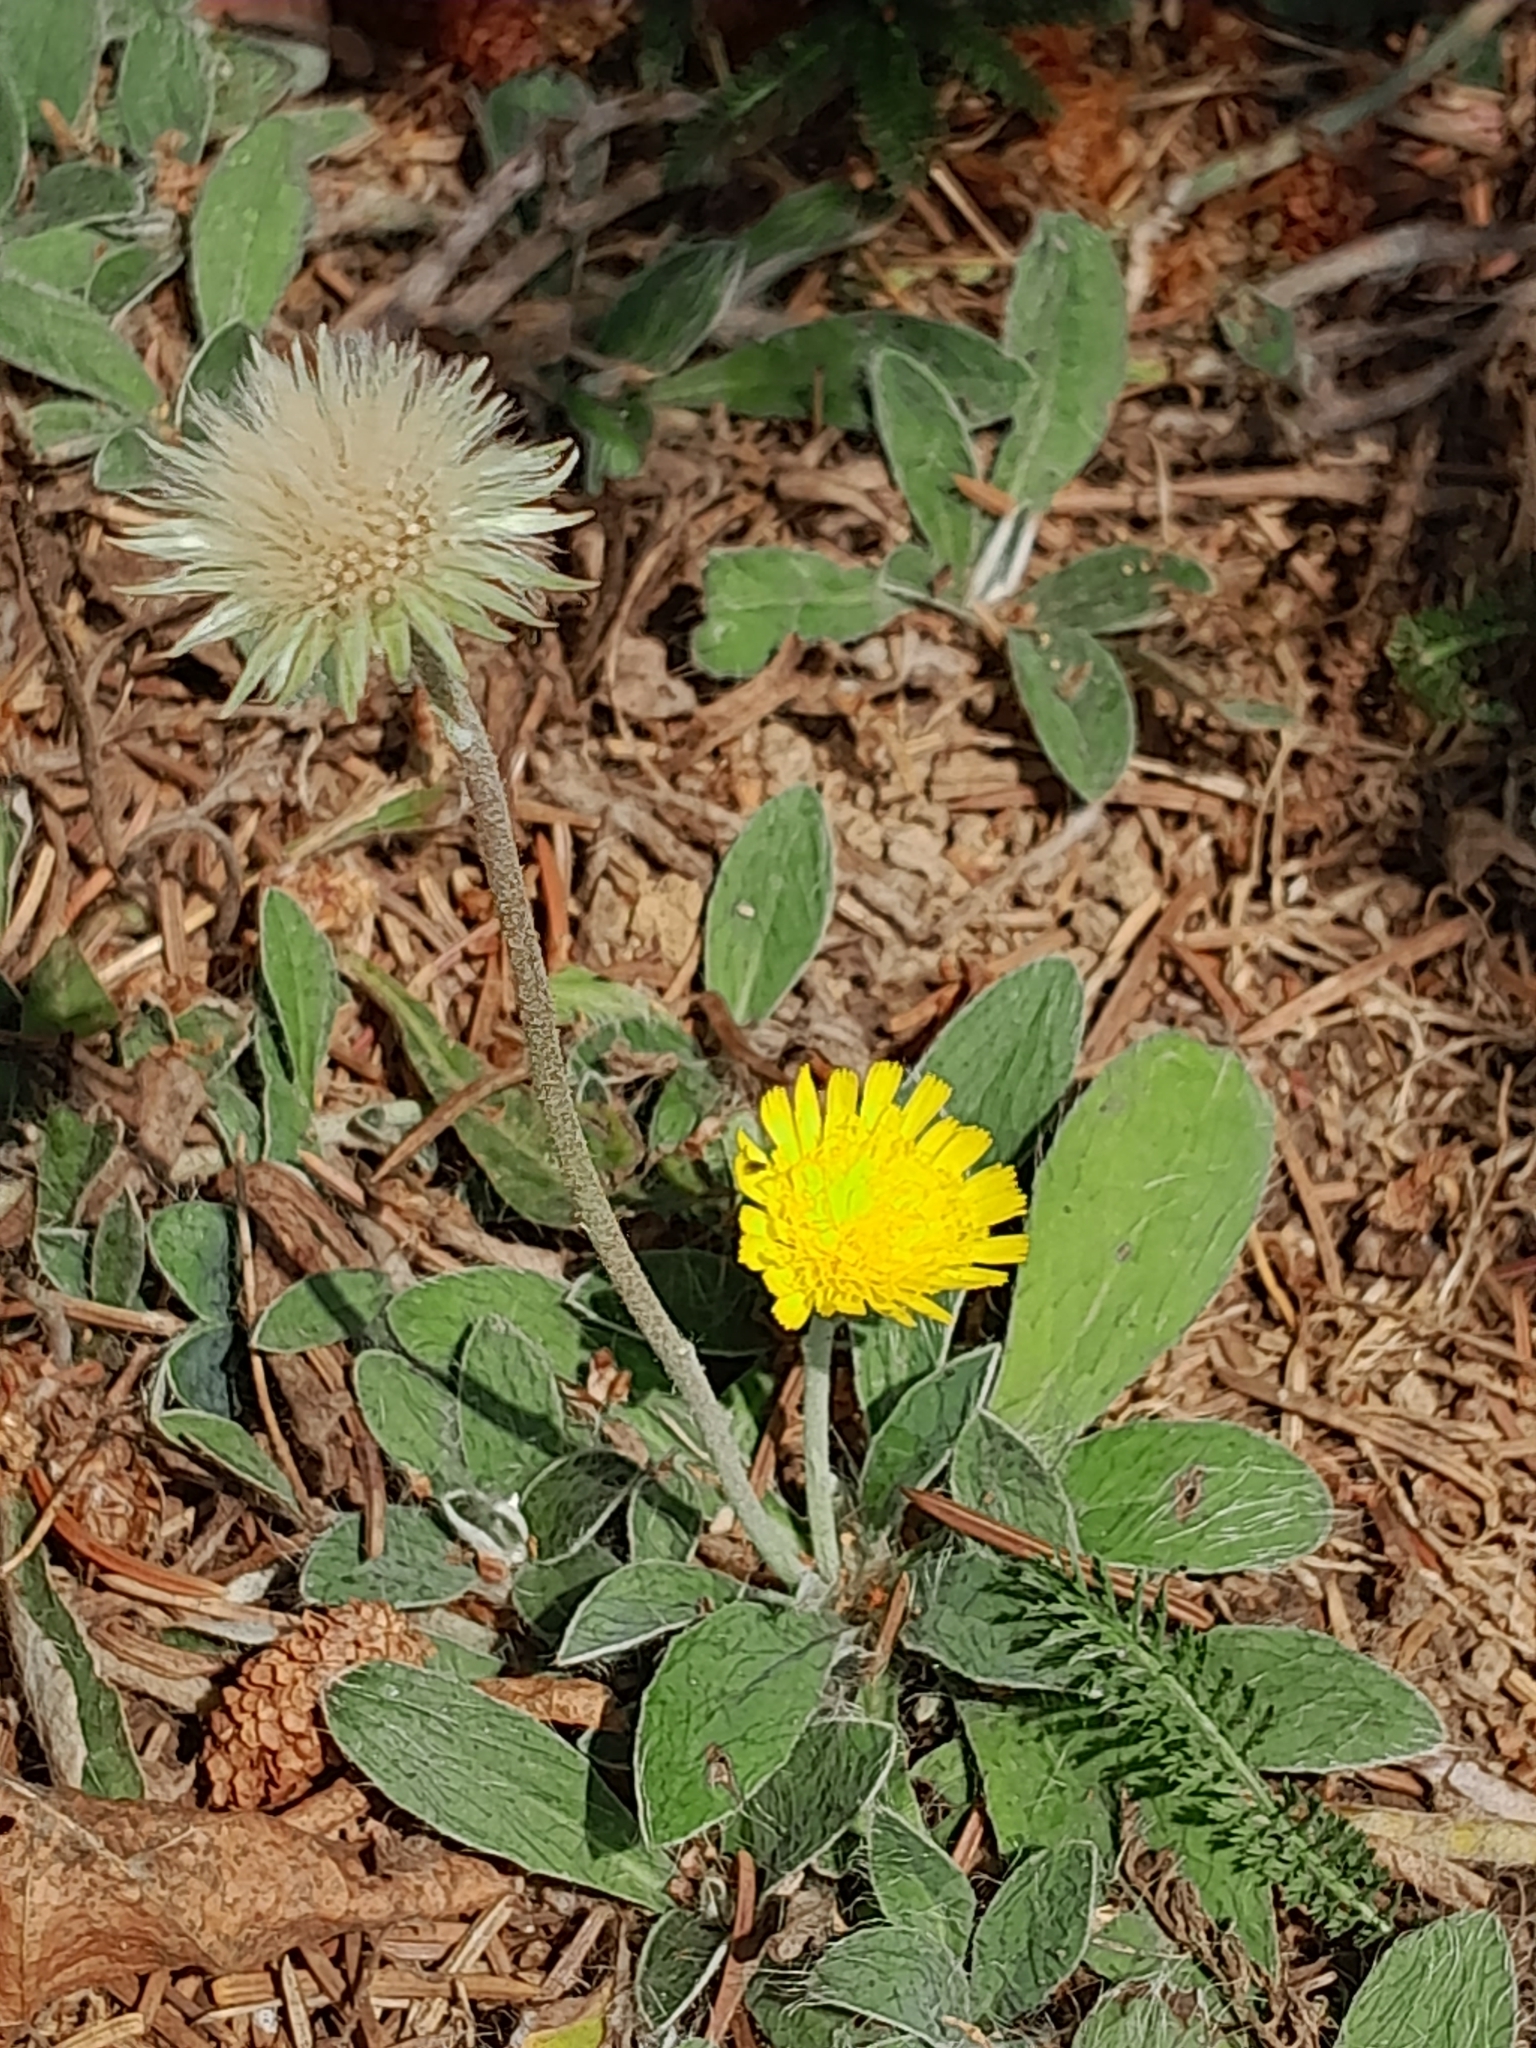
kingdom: Plantae
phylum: Tracheophyta
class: Magnoliopsida
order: Asterales
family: Asteraceae
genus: Pilosella
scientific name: Pilosella officinarum
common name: Mouse-ear hawkweed
